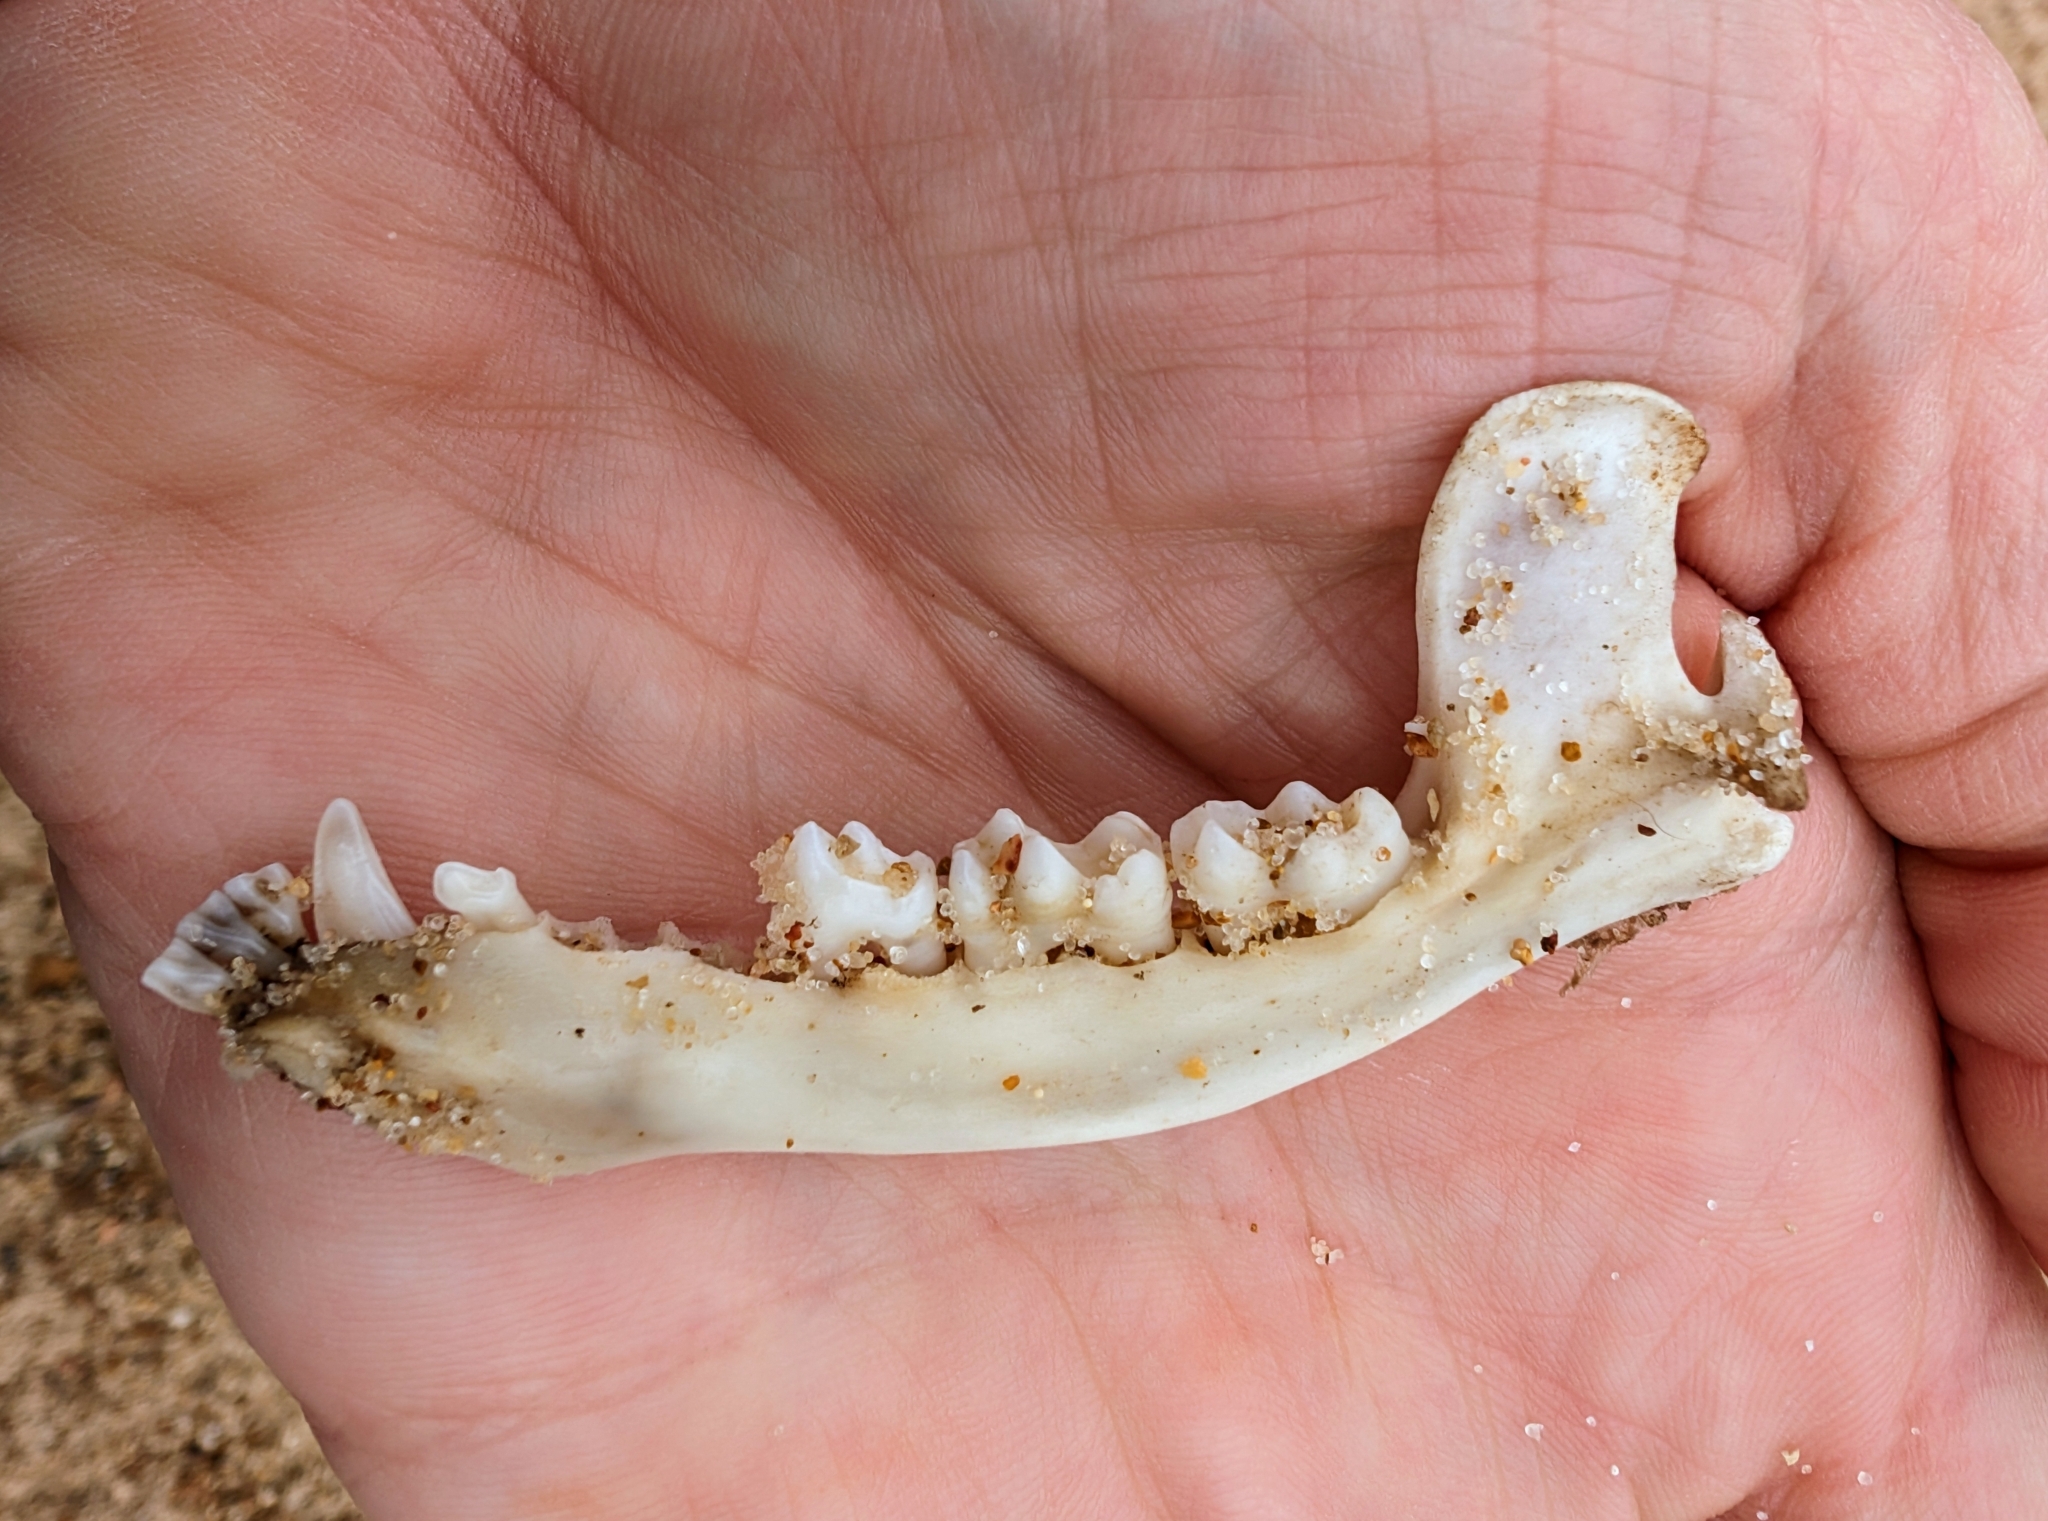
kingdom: Animalia
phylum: Chordata
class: Mammalia
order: Carnivora
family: Procyonidae
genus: Procyon
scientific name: Procyon lotor
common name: Raccoon
